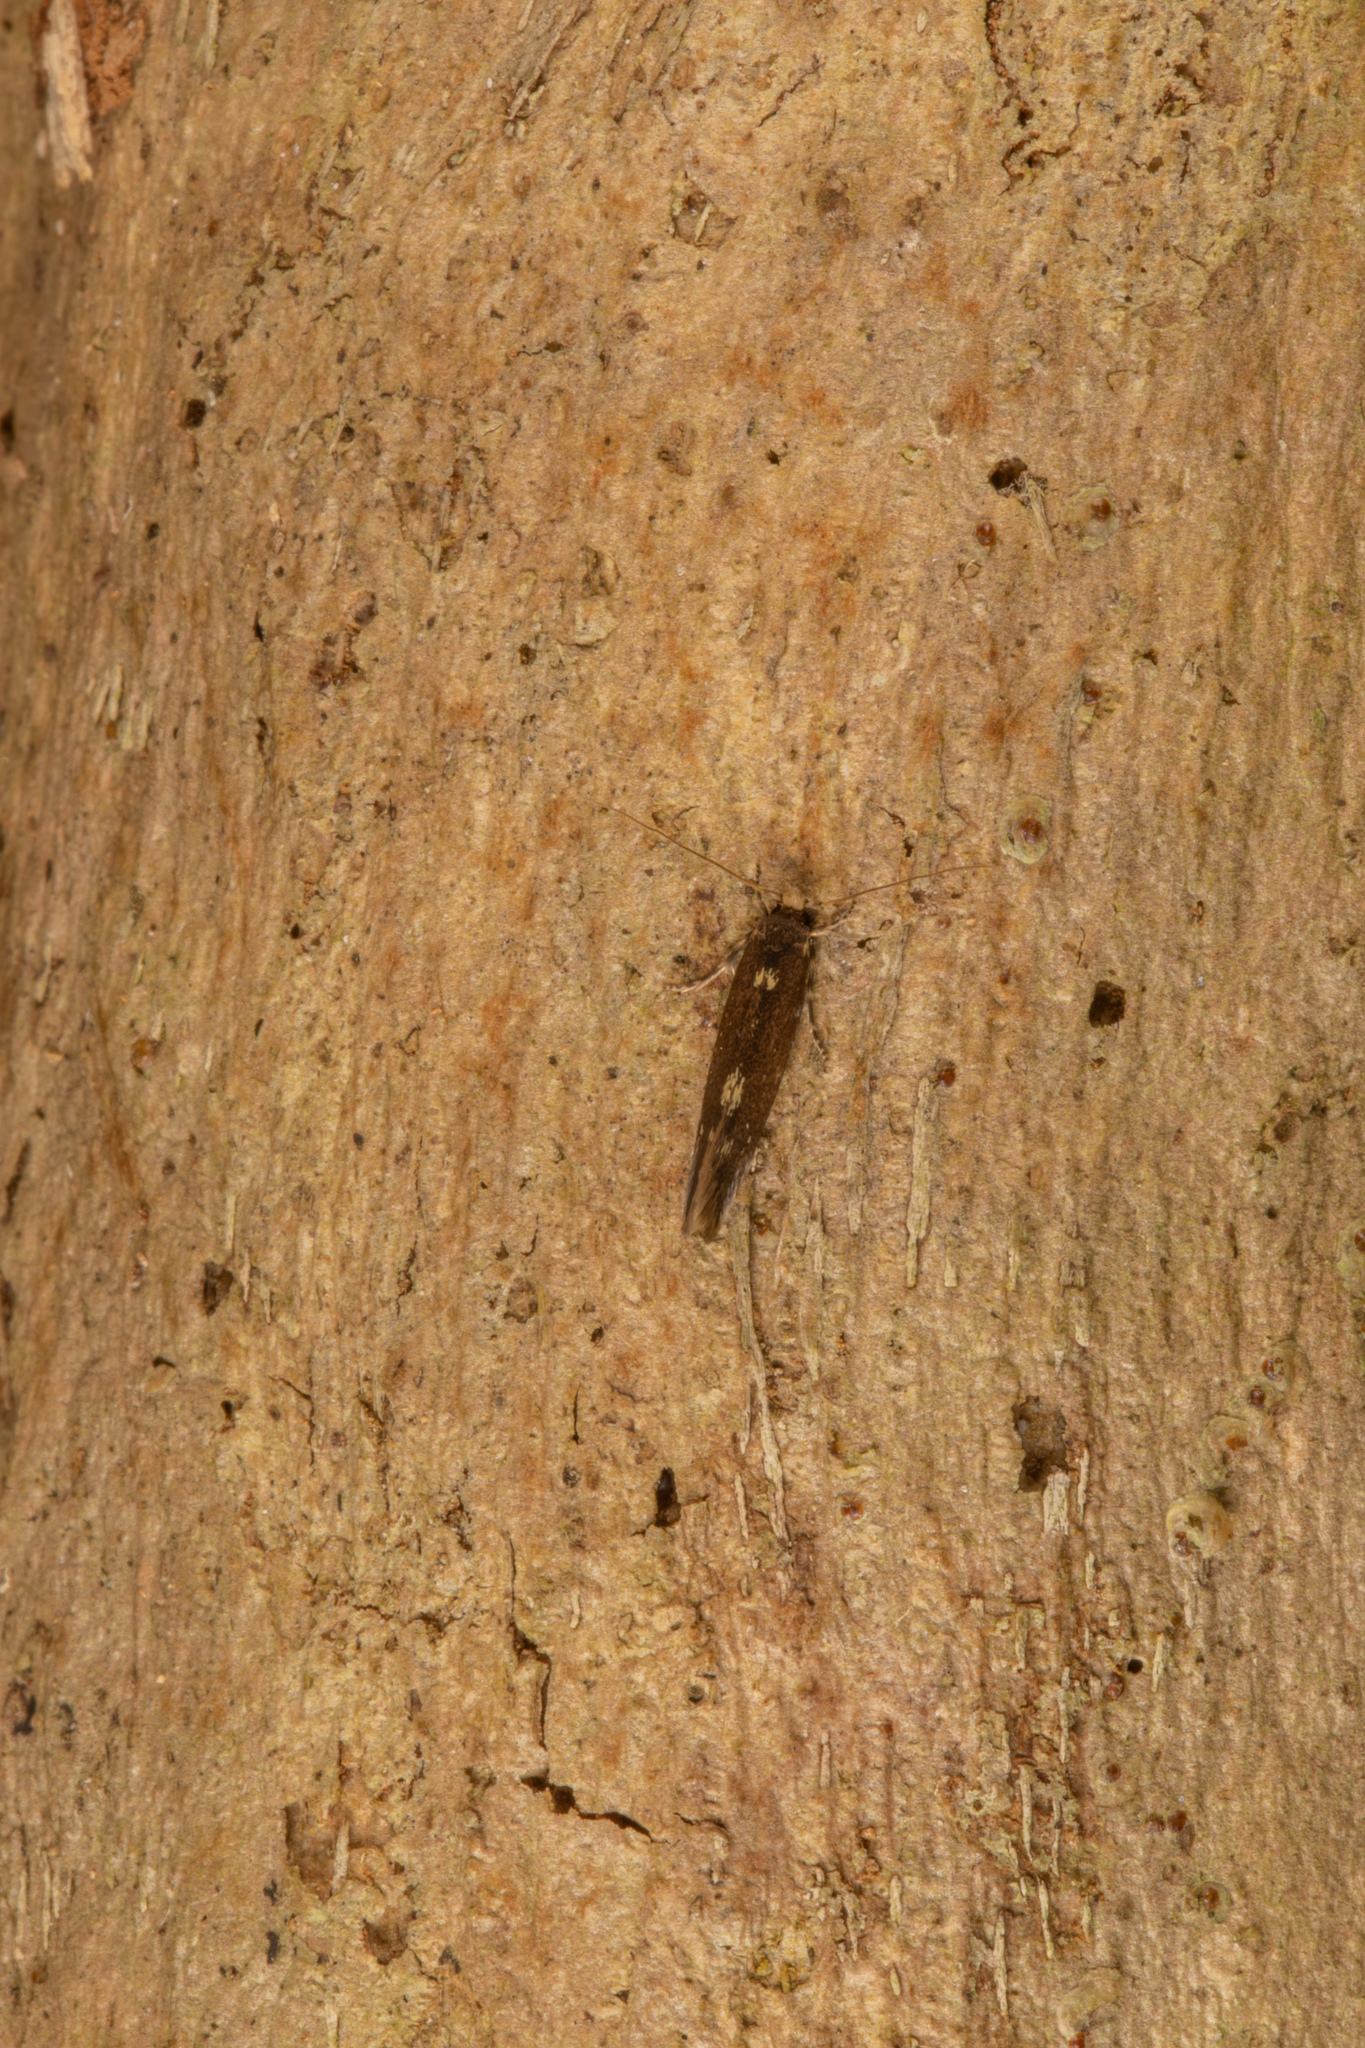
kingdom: Animalia
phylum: Arthropoda
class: Insecta
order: Lepidoptera
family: Tineidae
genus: Opogona
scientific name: Opogona omoscopa
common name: Moth
